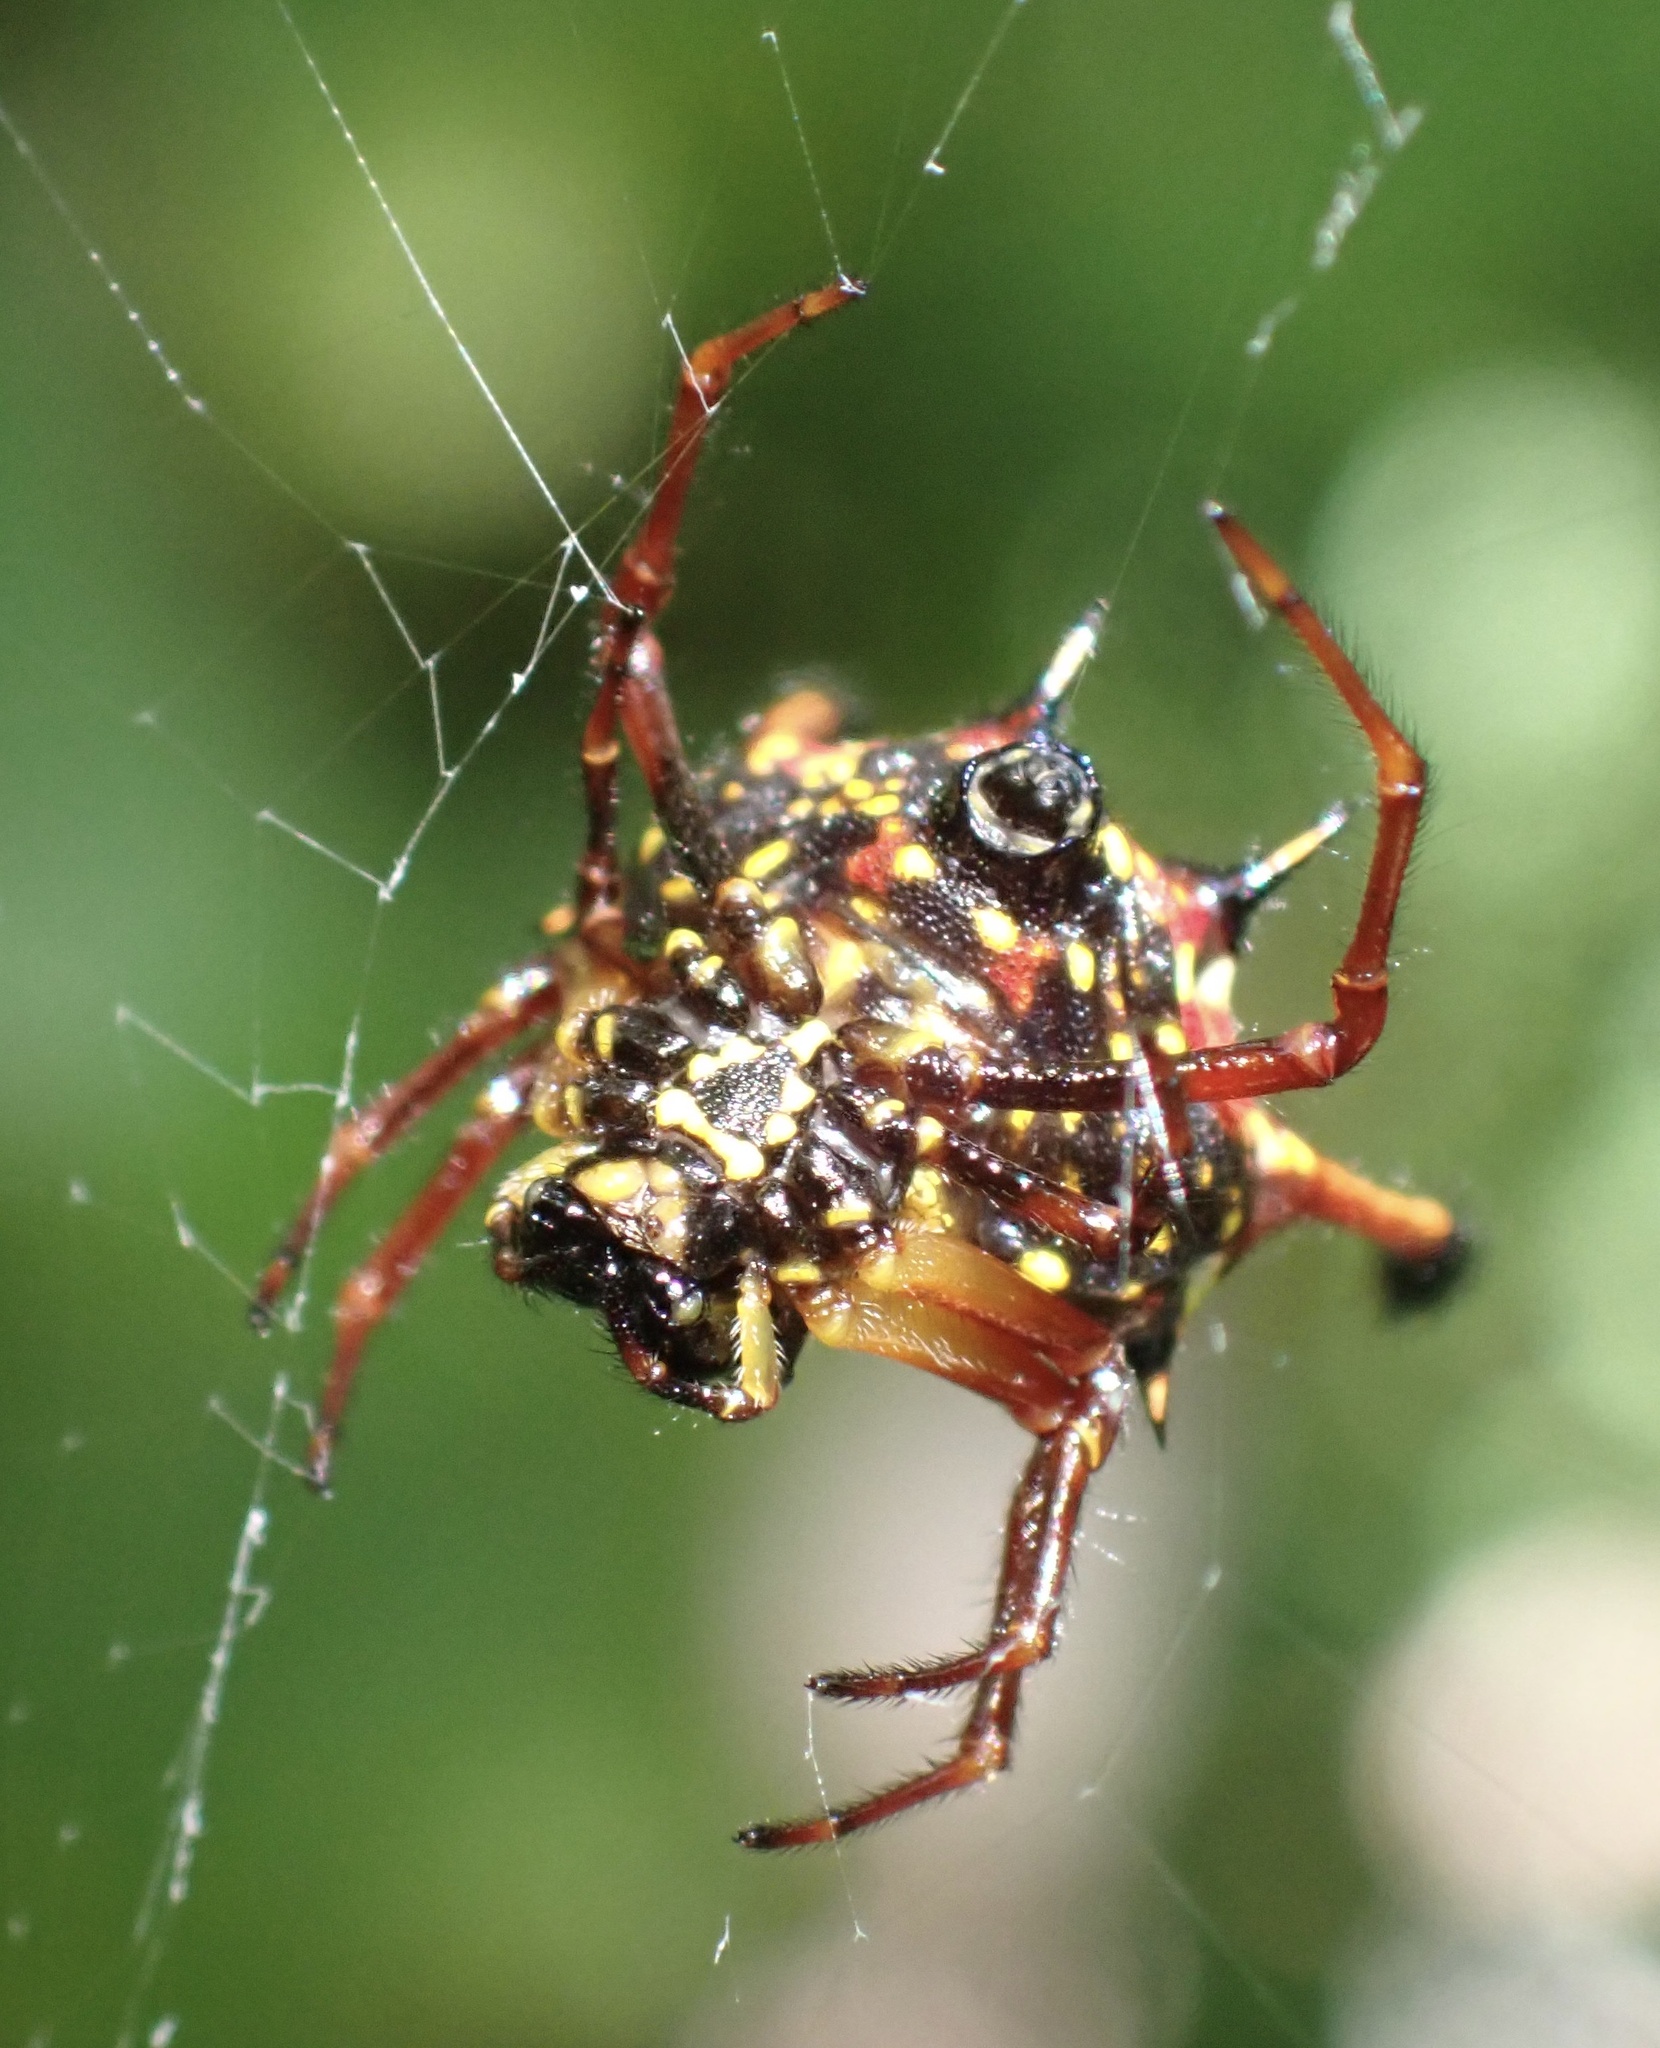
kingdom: Animalia
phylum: Arthropoda
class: Arachnida
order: Araneae
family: Araneidae
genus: Gasteracantha
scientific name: Gasteracantha clavatrix
